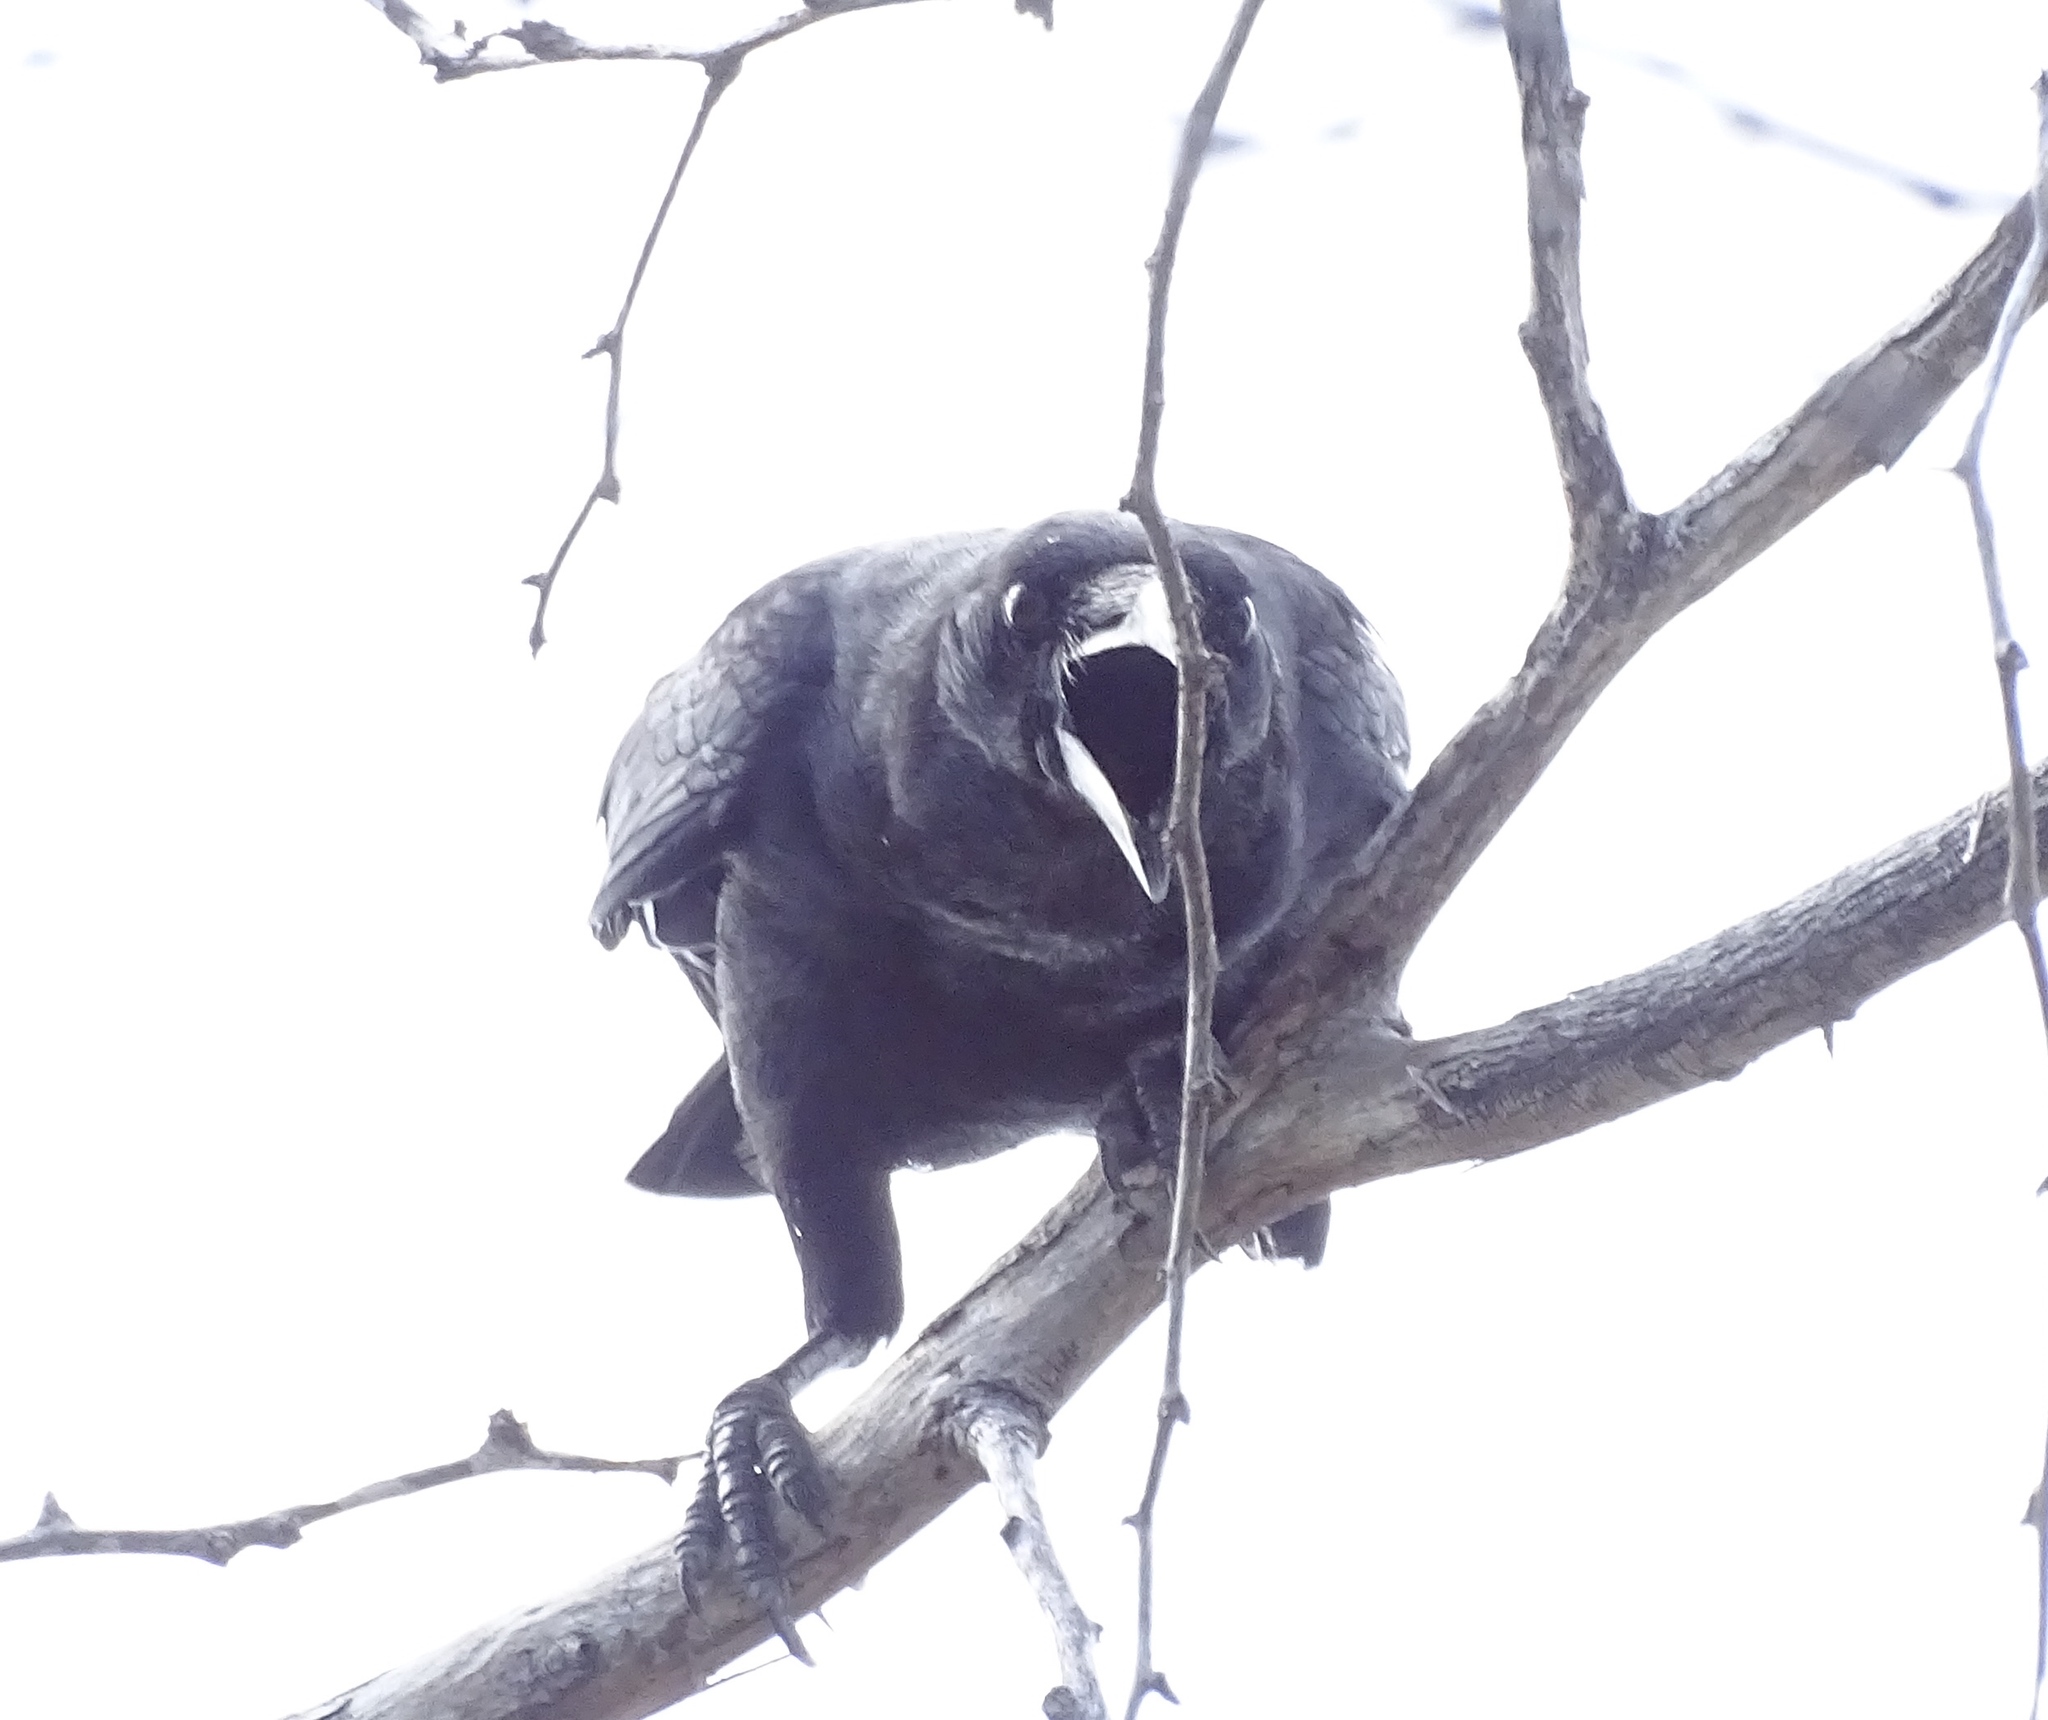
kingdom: Animalia
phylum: Chordata
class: Aves
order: Passeriformes
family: Corvidae
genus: Corvus
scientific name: Corvus palmarum
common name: Palm crow
